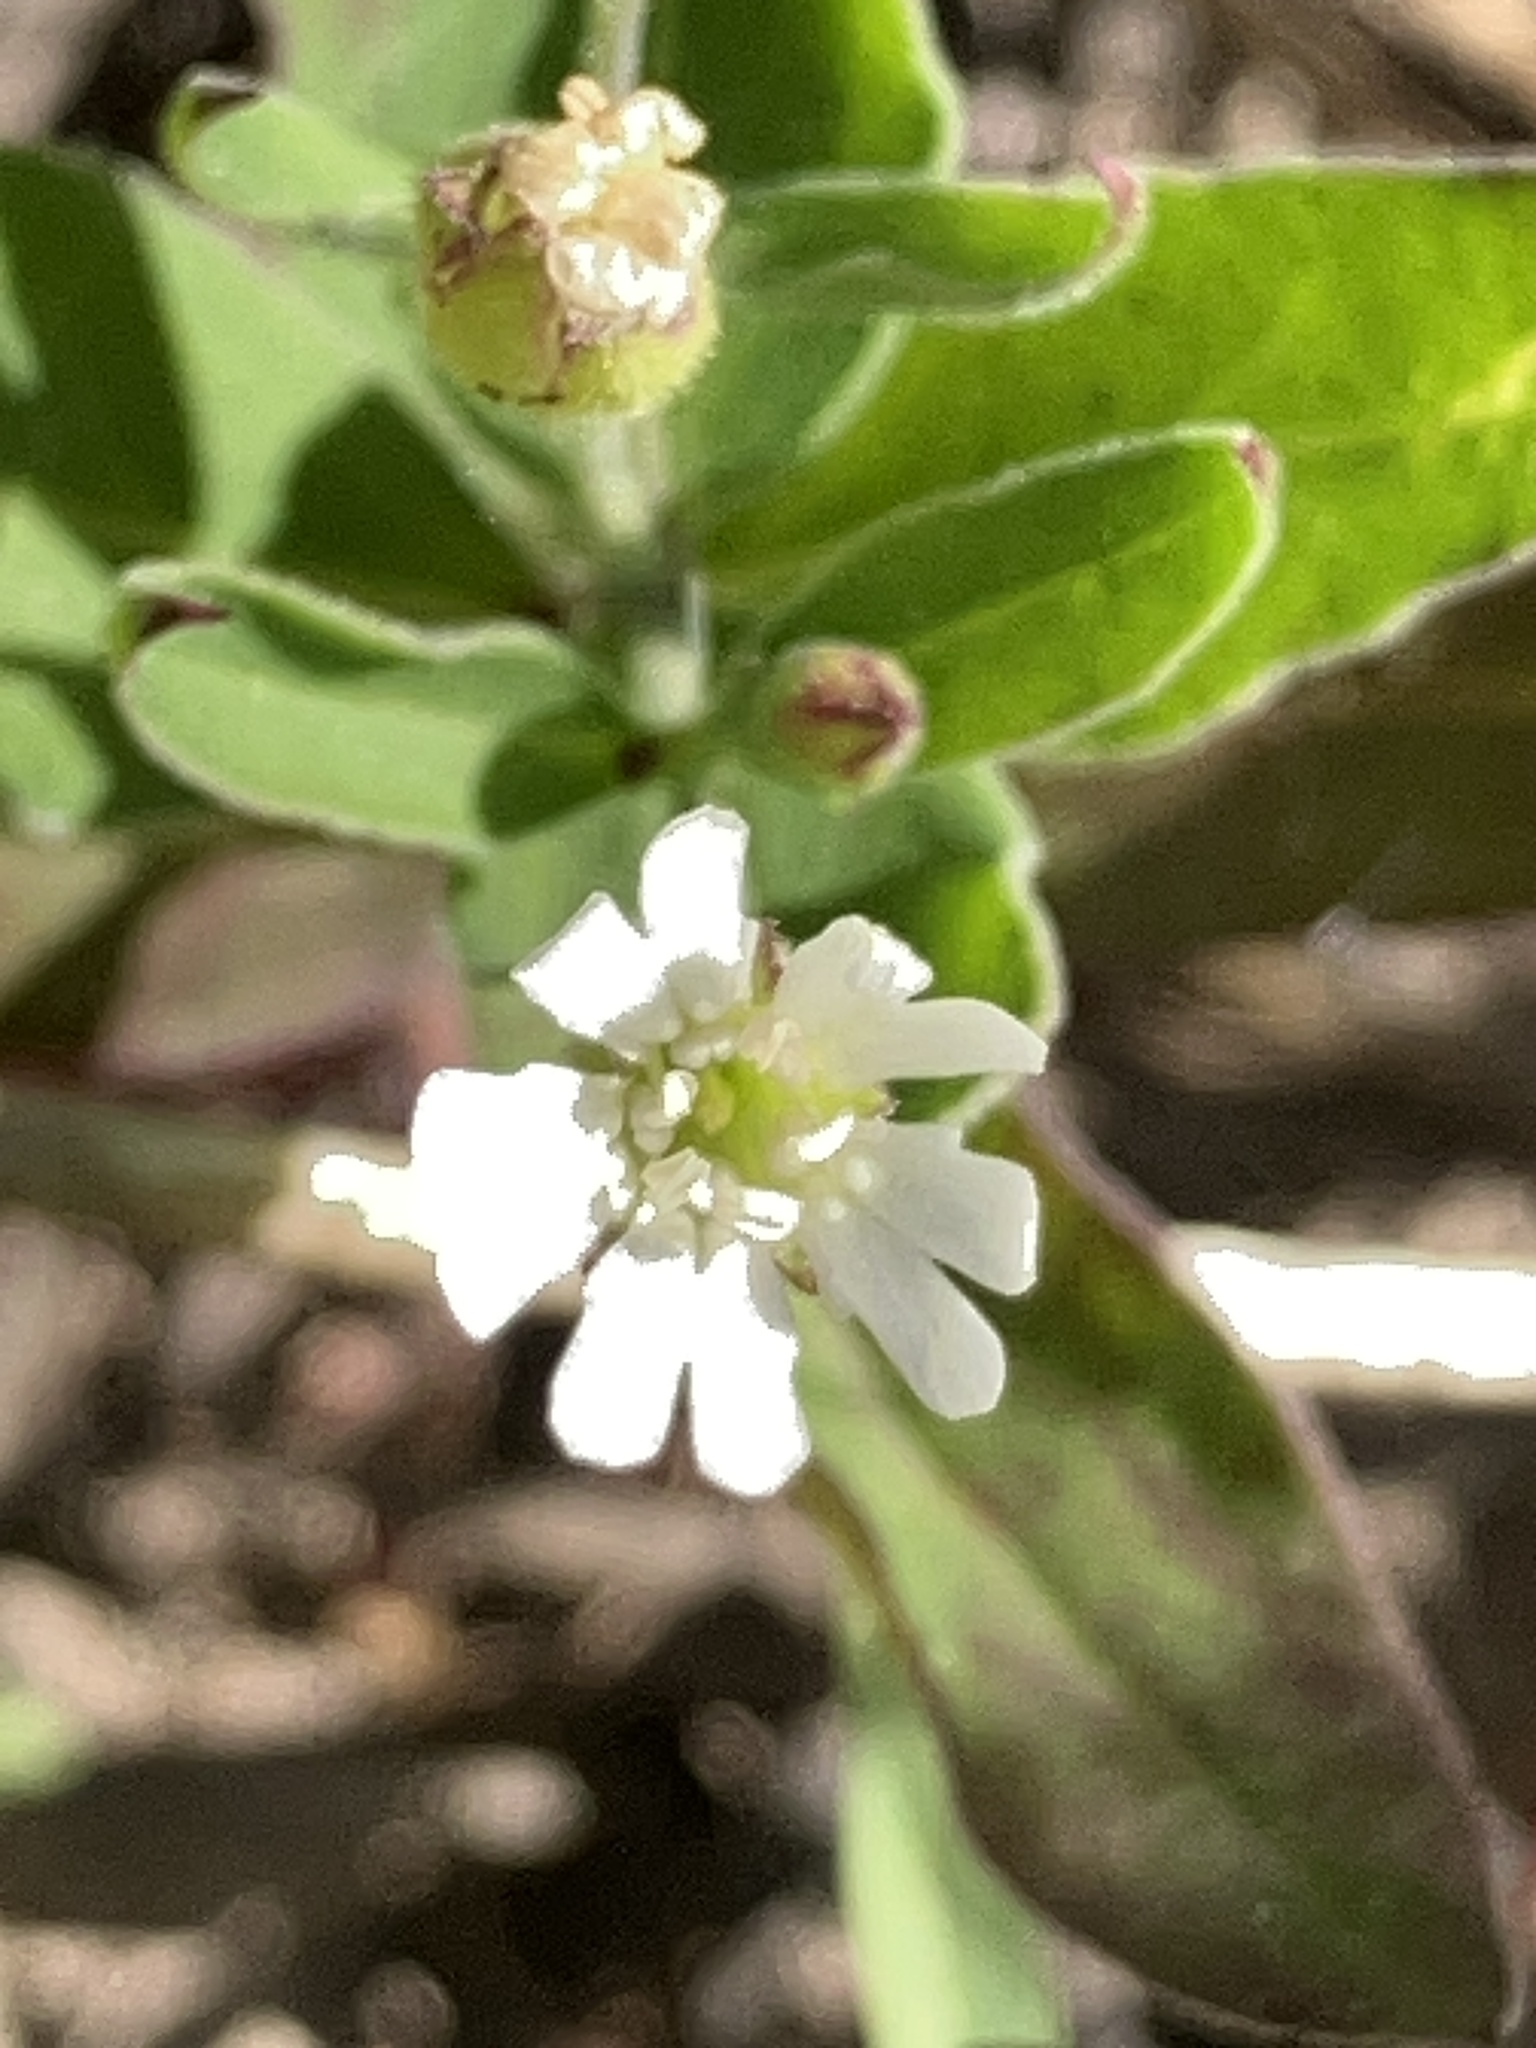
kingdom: Plantae
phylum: Tracheophyta
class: Magnoliopsida
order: Caryophyllales
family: Caryophyllaceae
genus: Silene
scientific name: Silene menziesii
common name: Menzies's catchfly
